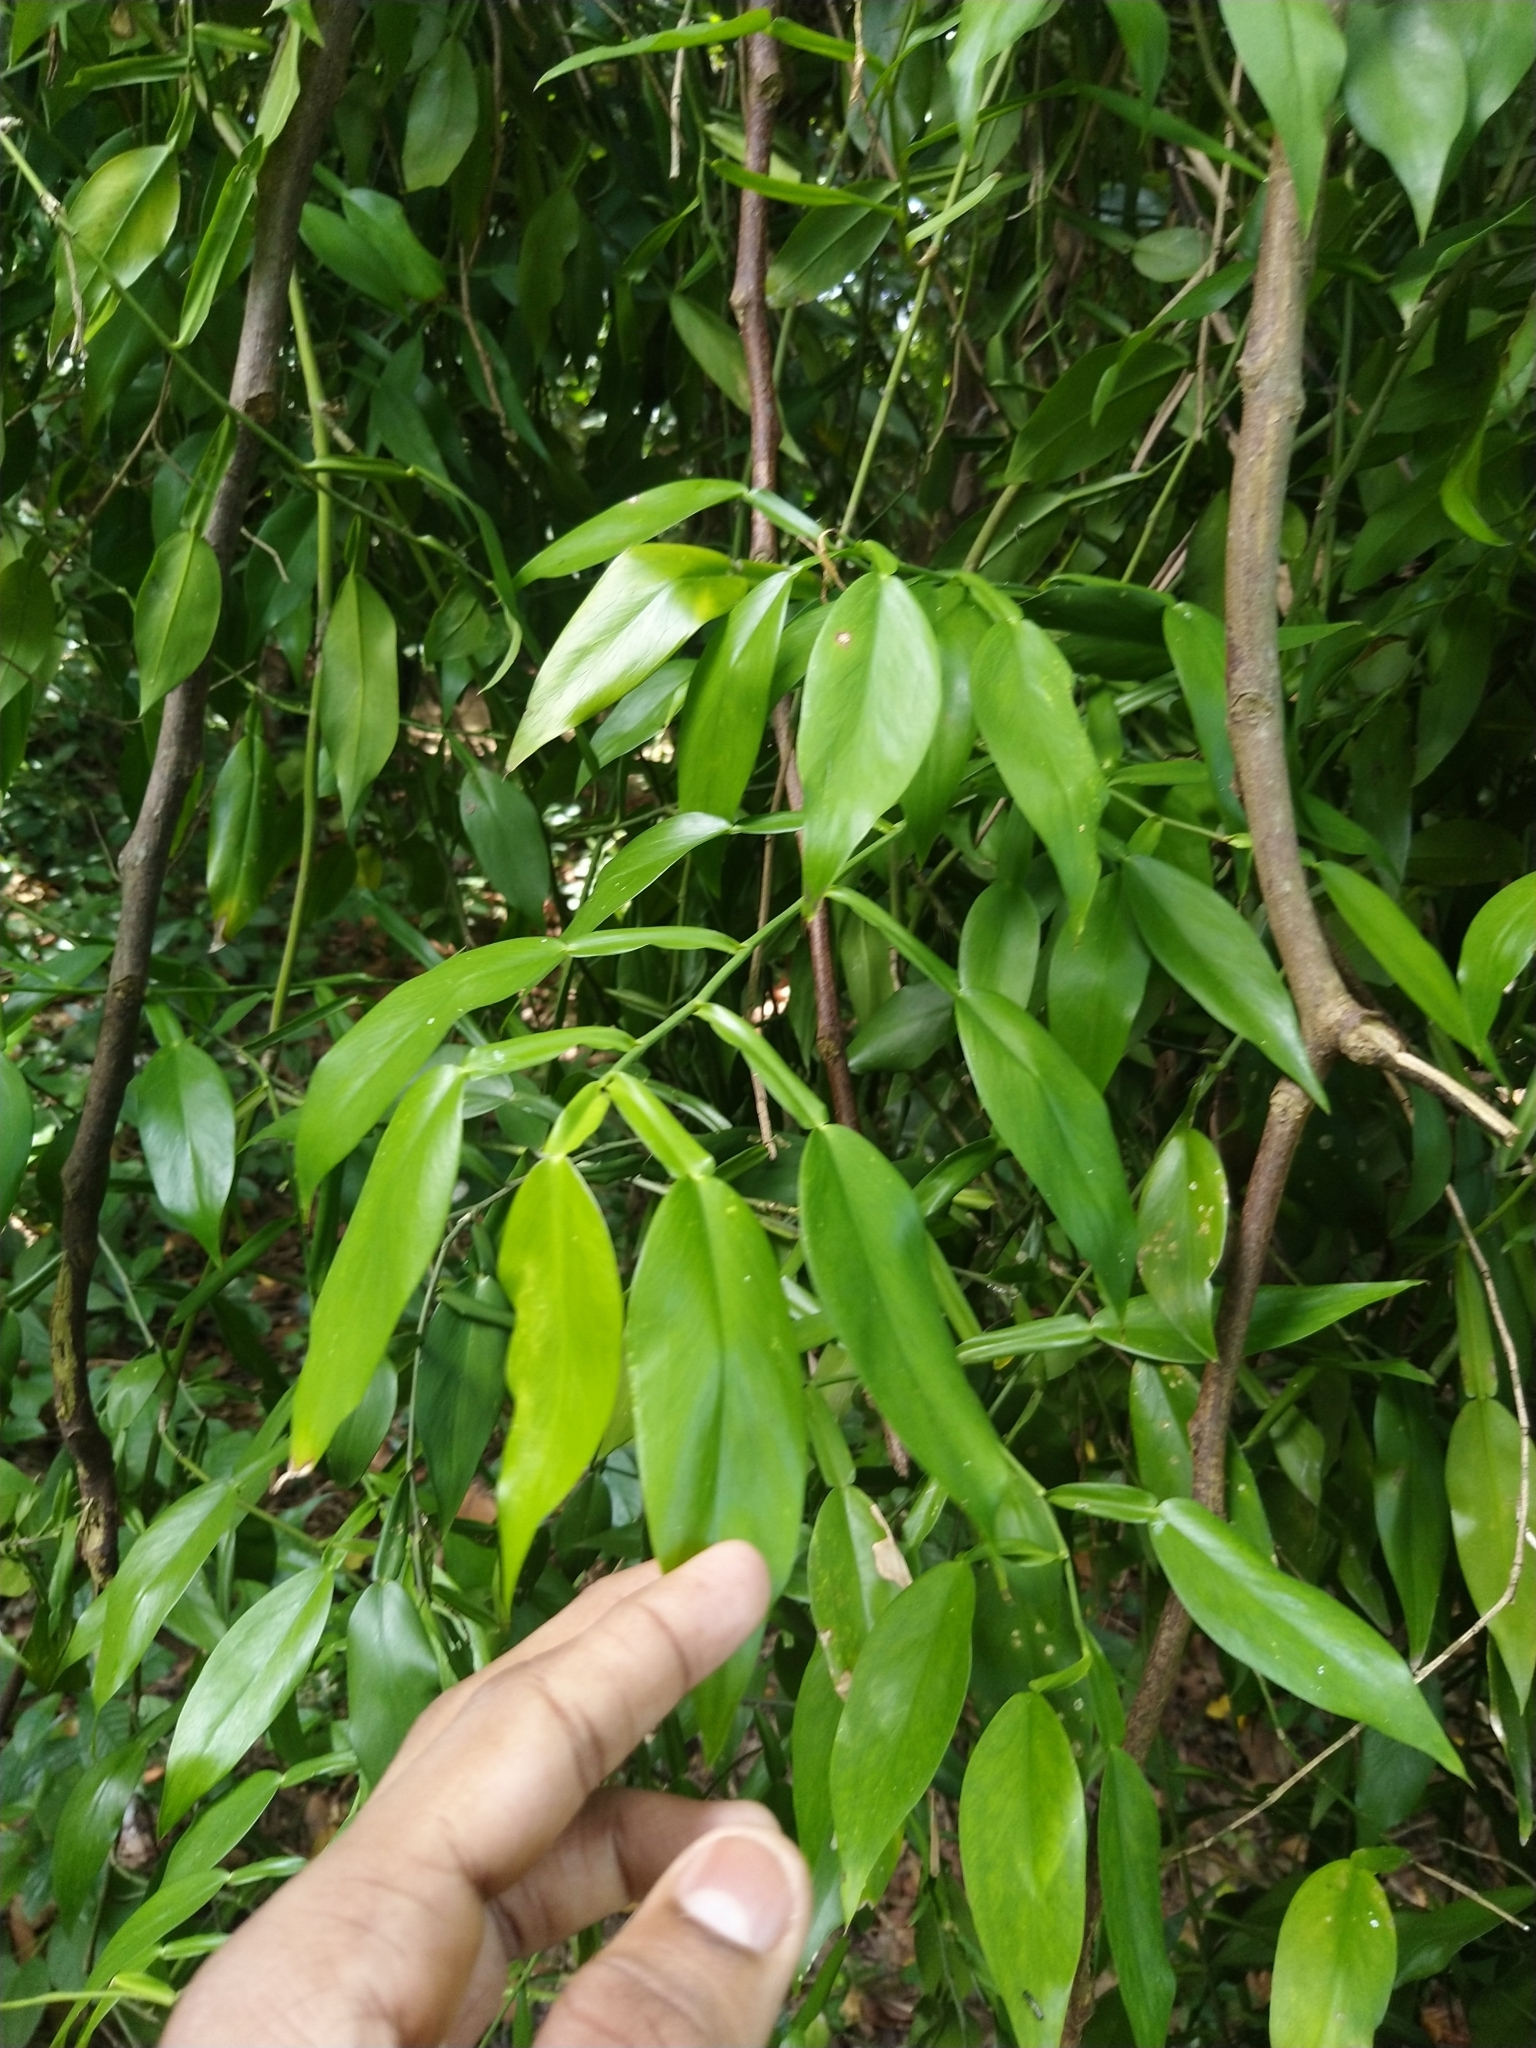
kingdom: Plantae
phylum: Tracheophyta
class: Liliopsida
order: Alismatales
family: Araceae
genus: Pothos
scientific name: Pothos chinensis
